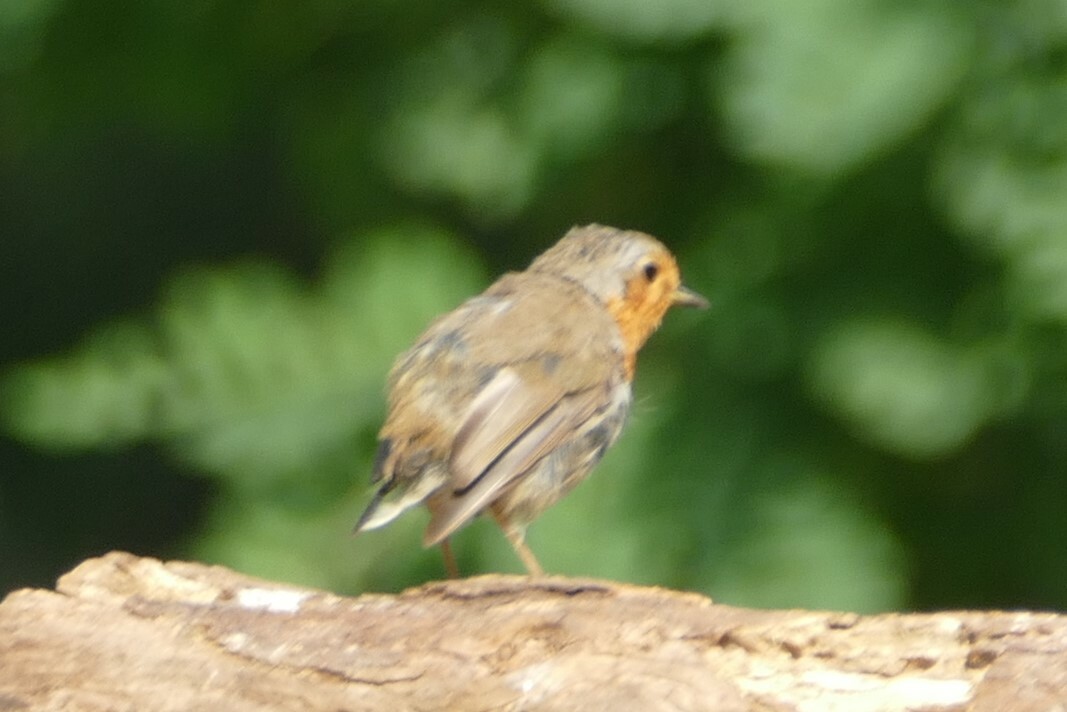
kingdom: Animalia
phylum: Chordata
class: Aves
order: Passeriformes
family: Muscicapidae
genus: Erithacus
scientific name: Erithacus rubecula
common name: European robin
